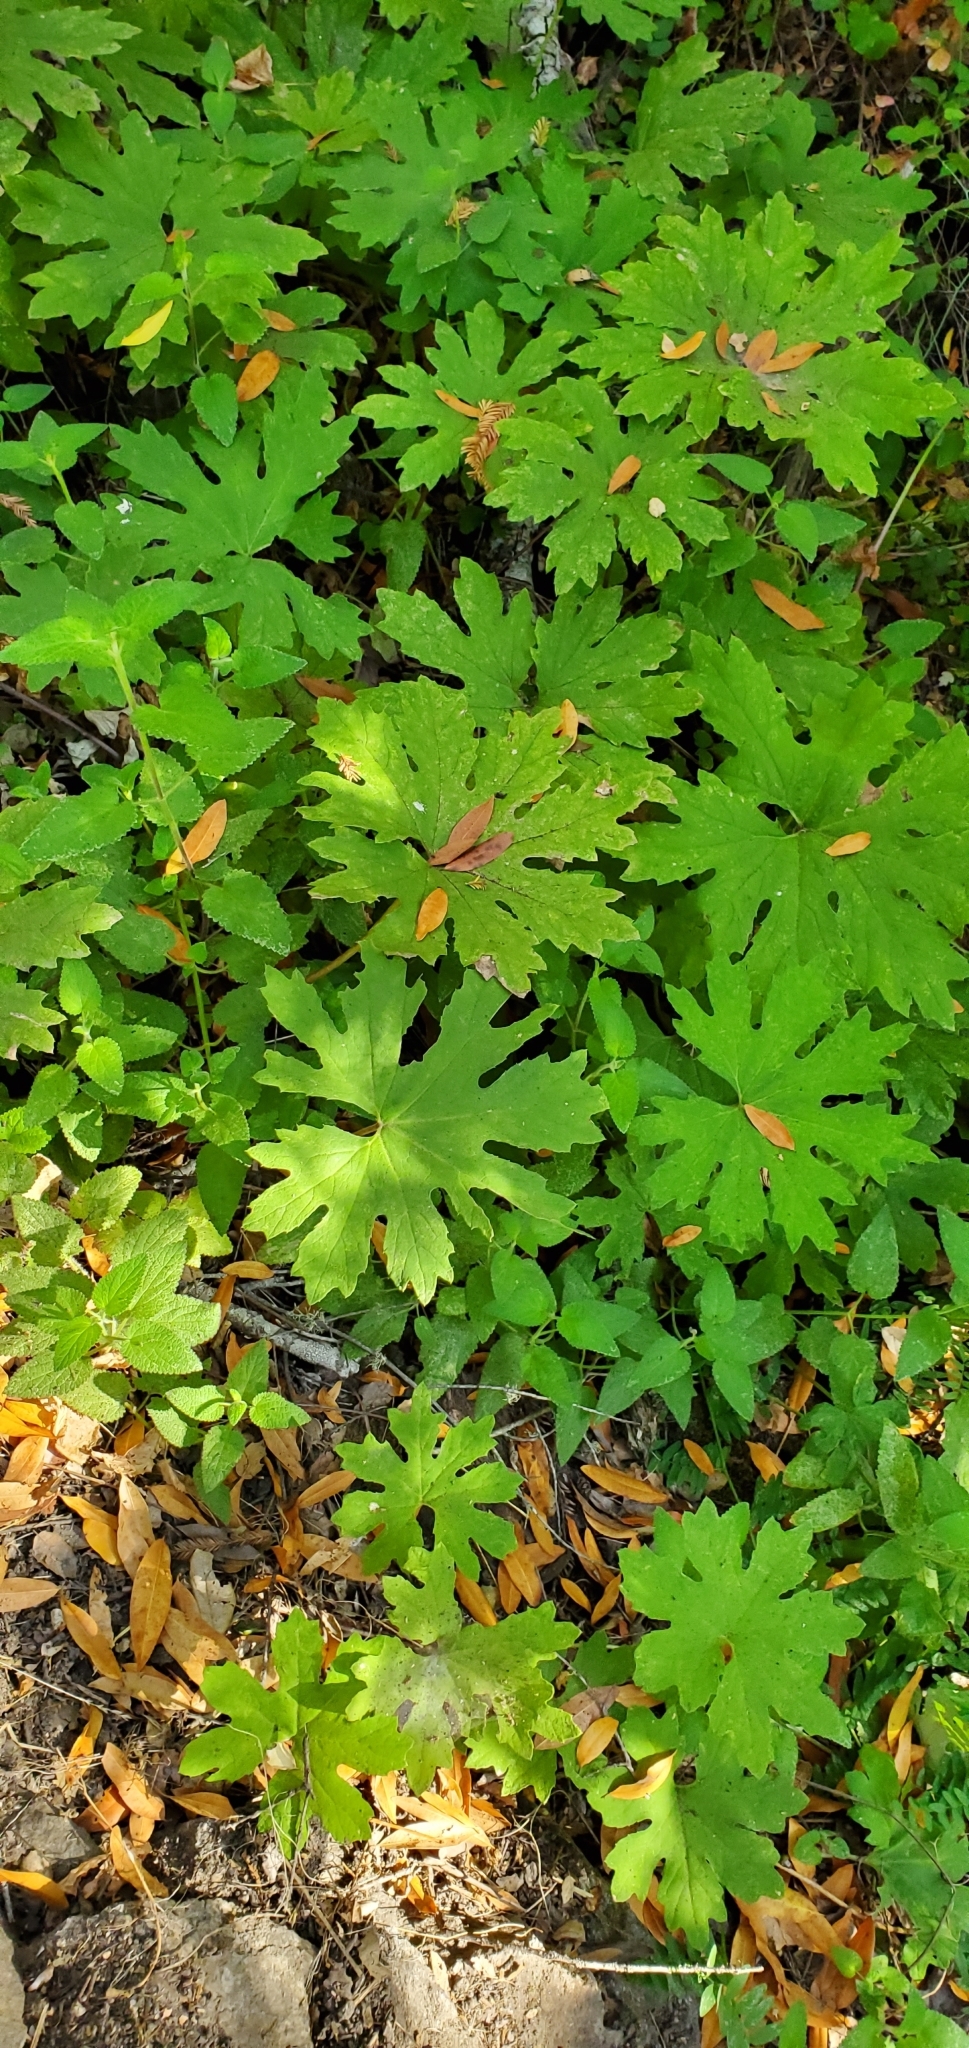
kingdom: Plantae
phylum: Tracheophyta
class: Magnoliopsida
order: Asterales
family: Asteraceae
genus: Petasites
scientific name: Petasites frigidus
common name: Arctic butterbur
